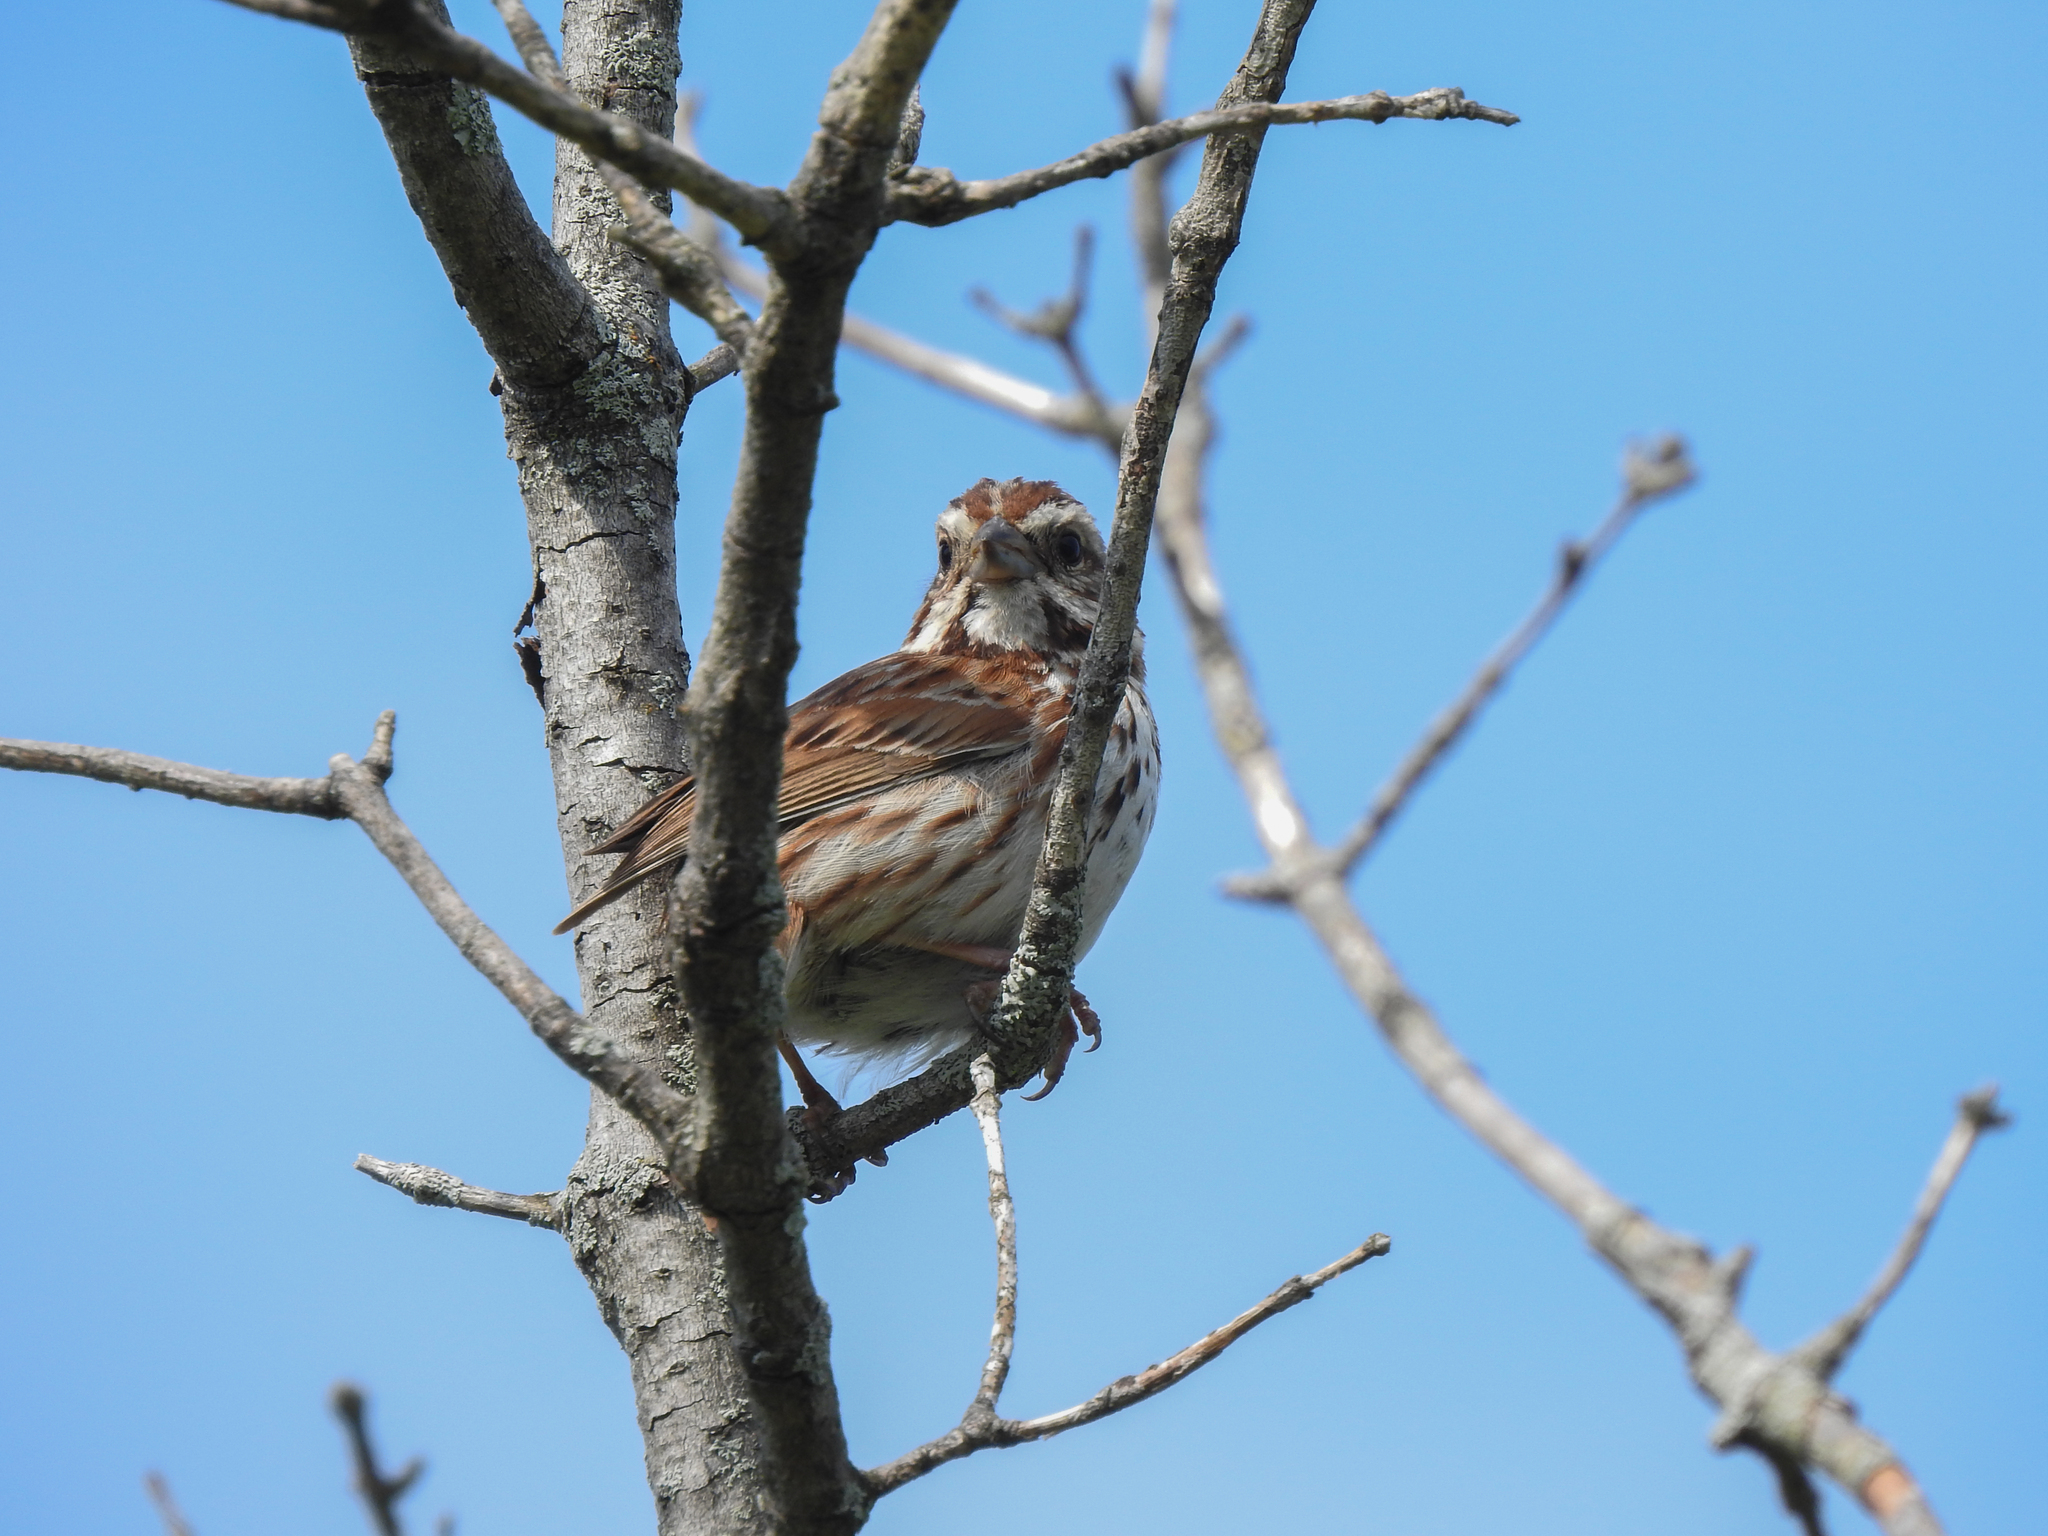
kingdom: Animalia
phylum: Chordata
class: Aves
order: Passeriformes
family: Passerellidae
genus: Melospiza
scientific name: Melospiza melodia
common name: Song sparrow
